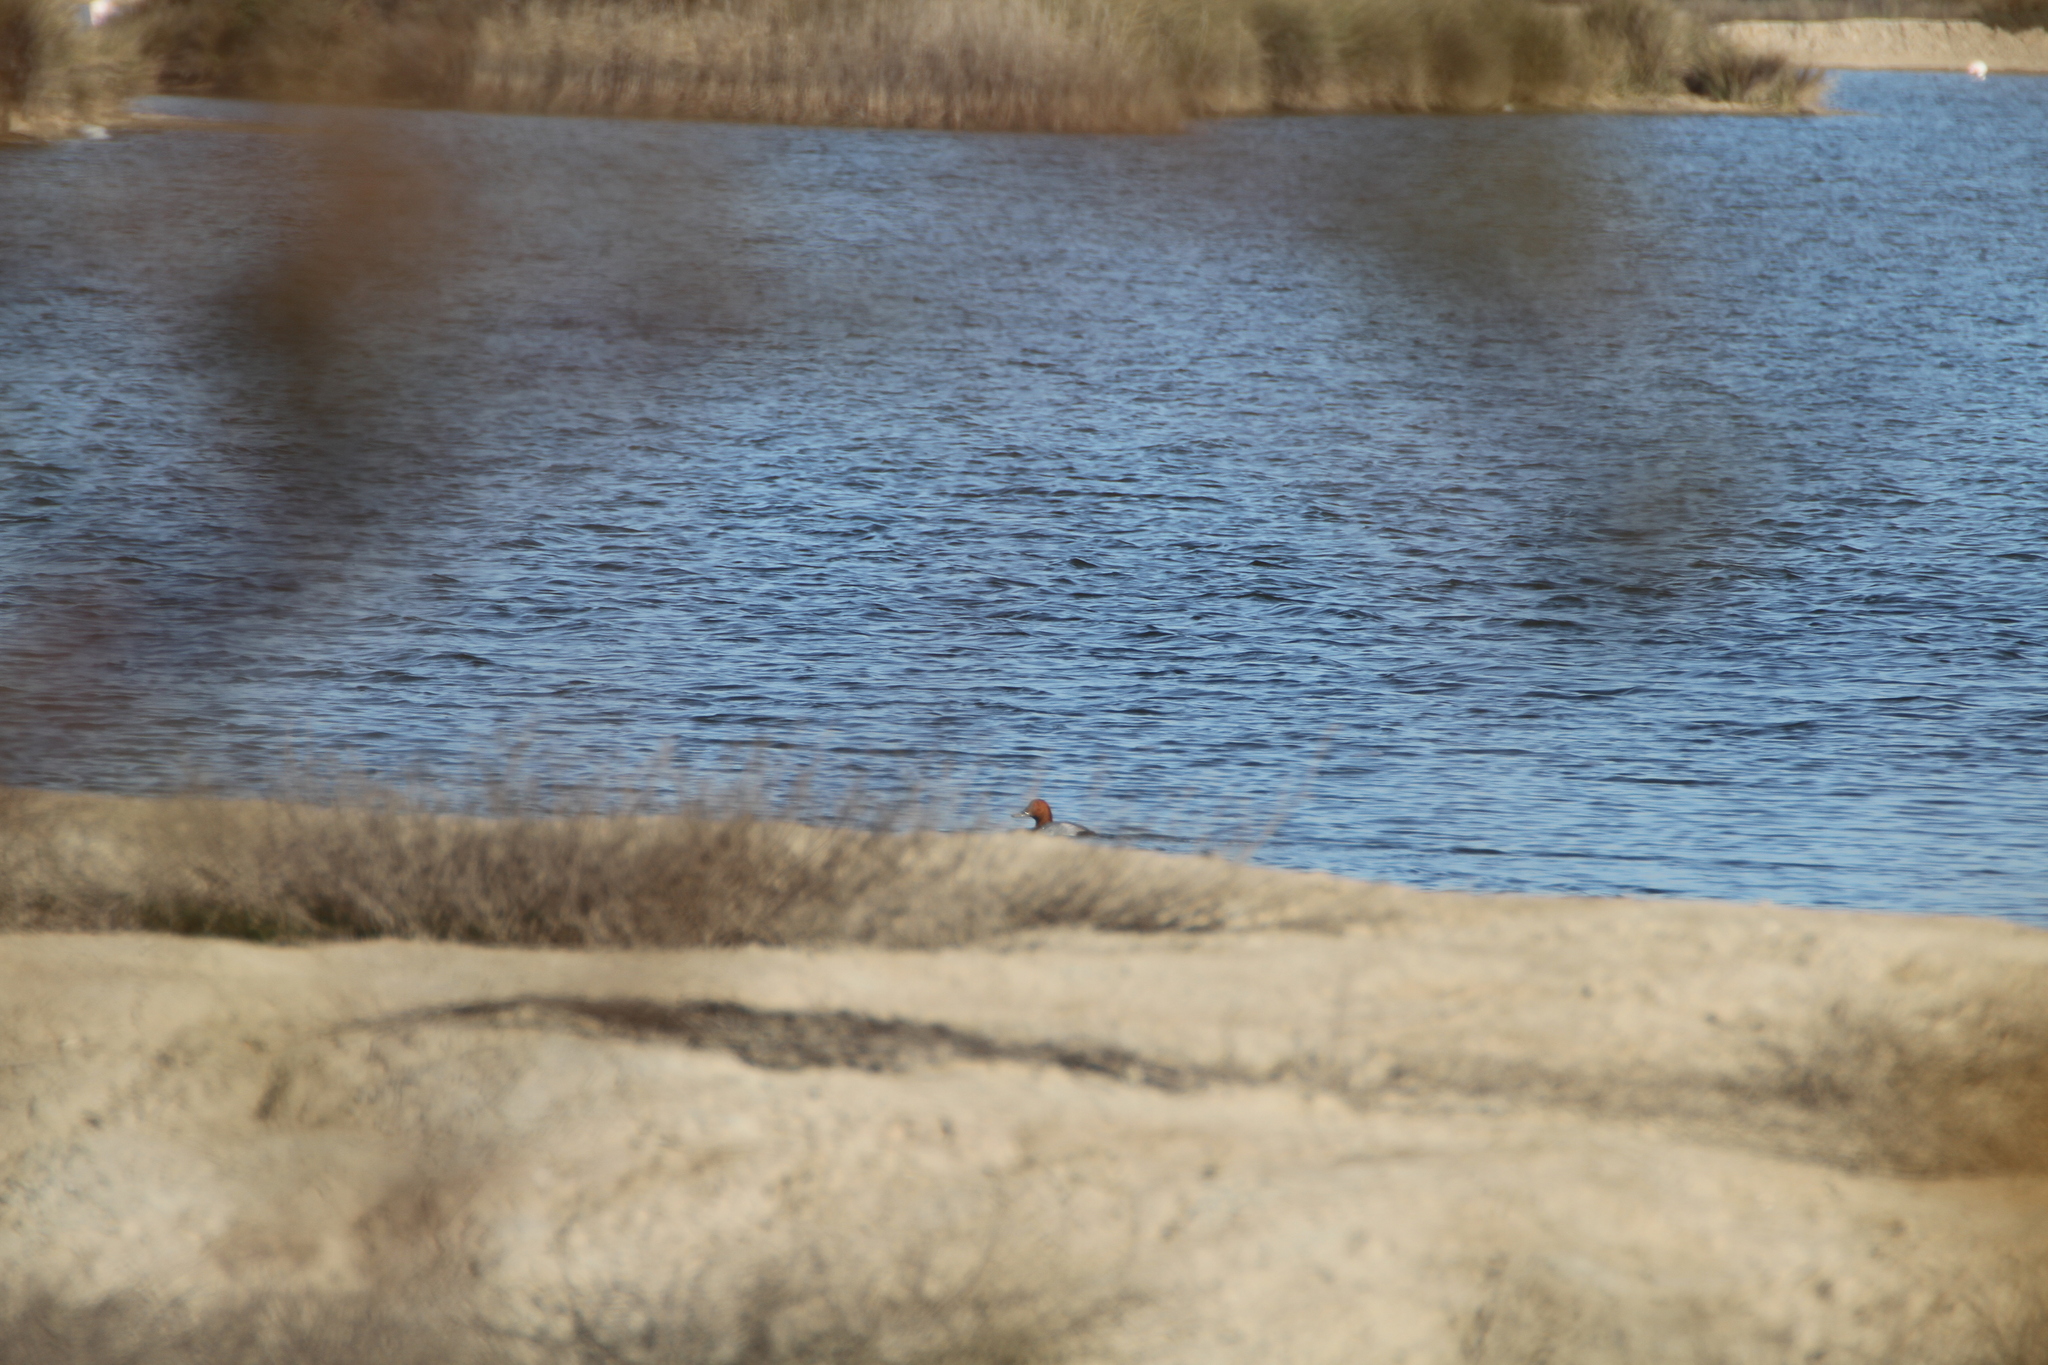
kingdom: Animalia
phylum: Chordata
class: Aves
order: Anseriformes
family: Anatidae
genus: Aythya
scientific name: Aythya ferina
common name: Common pochard
